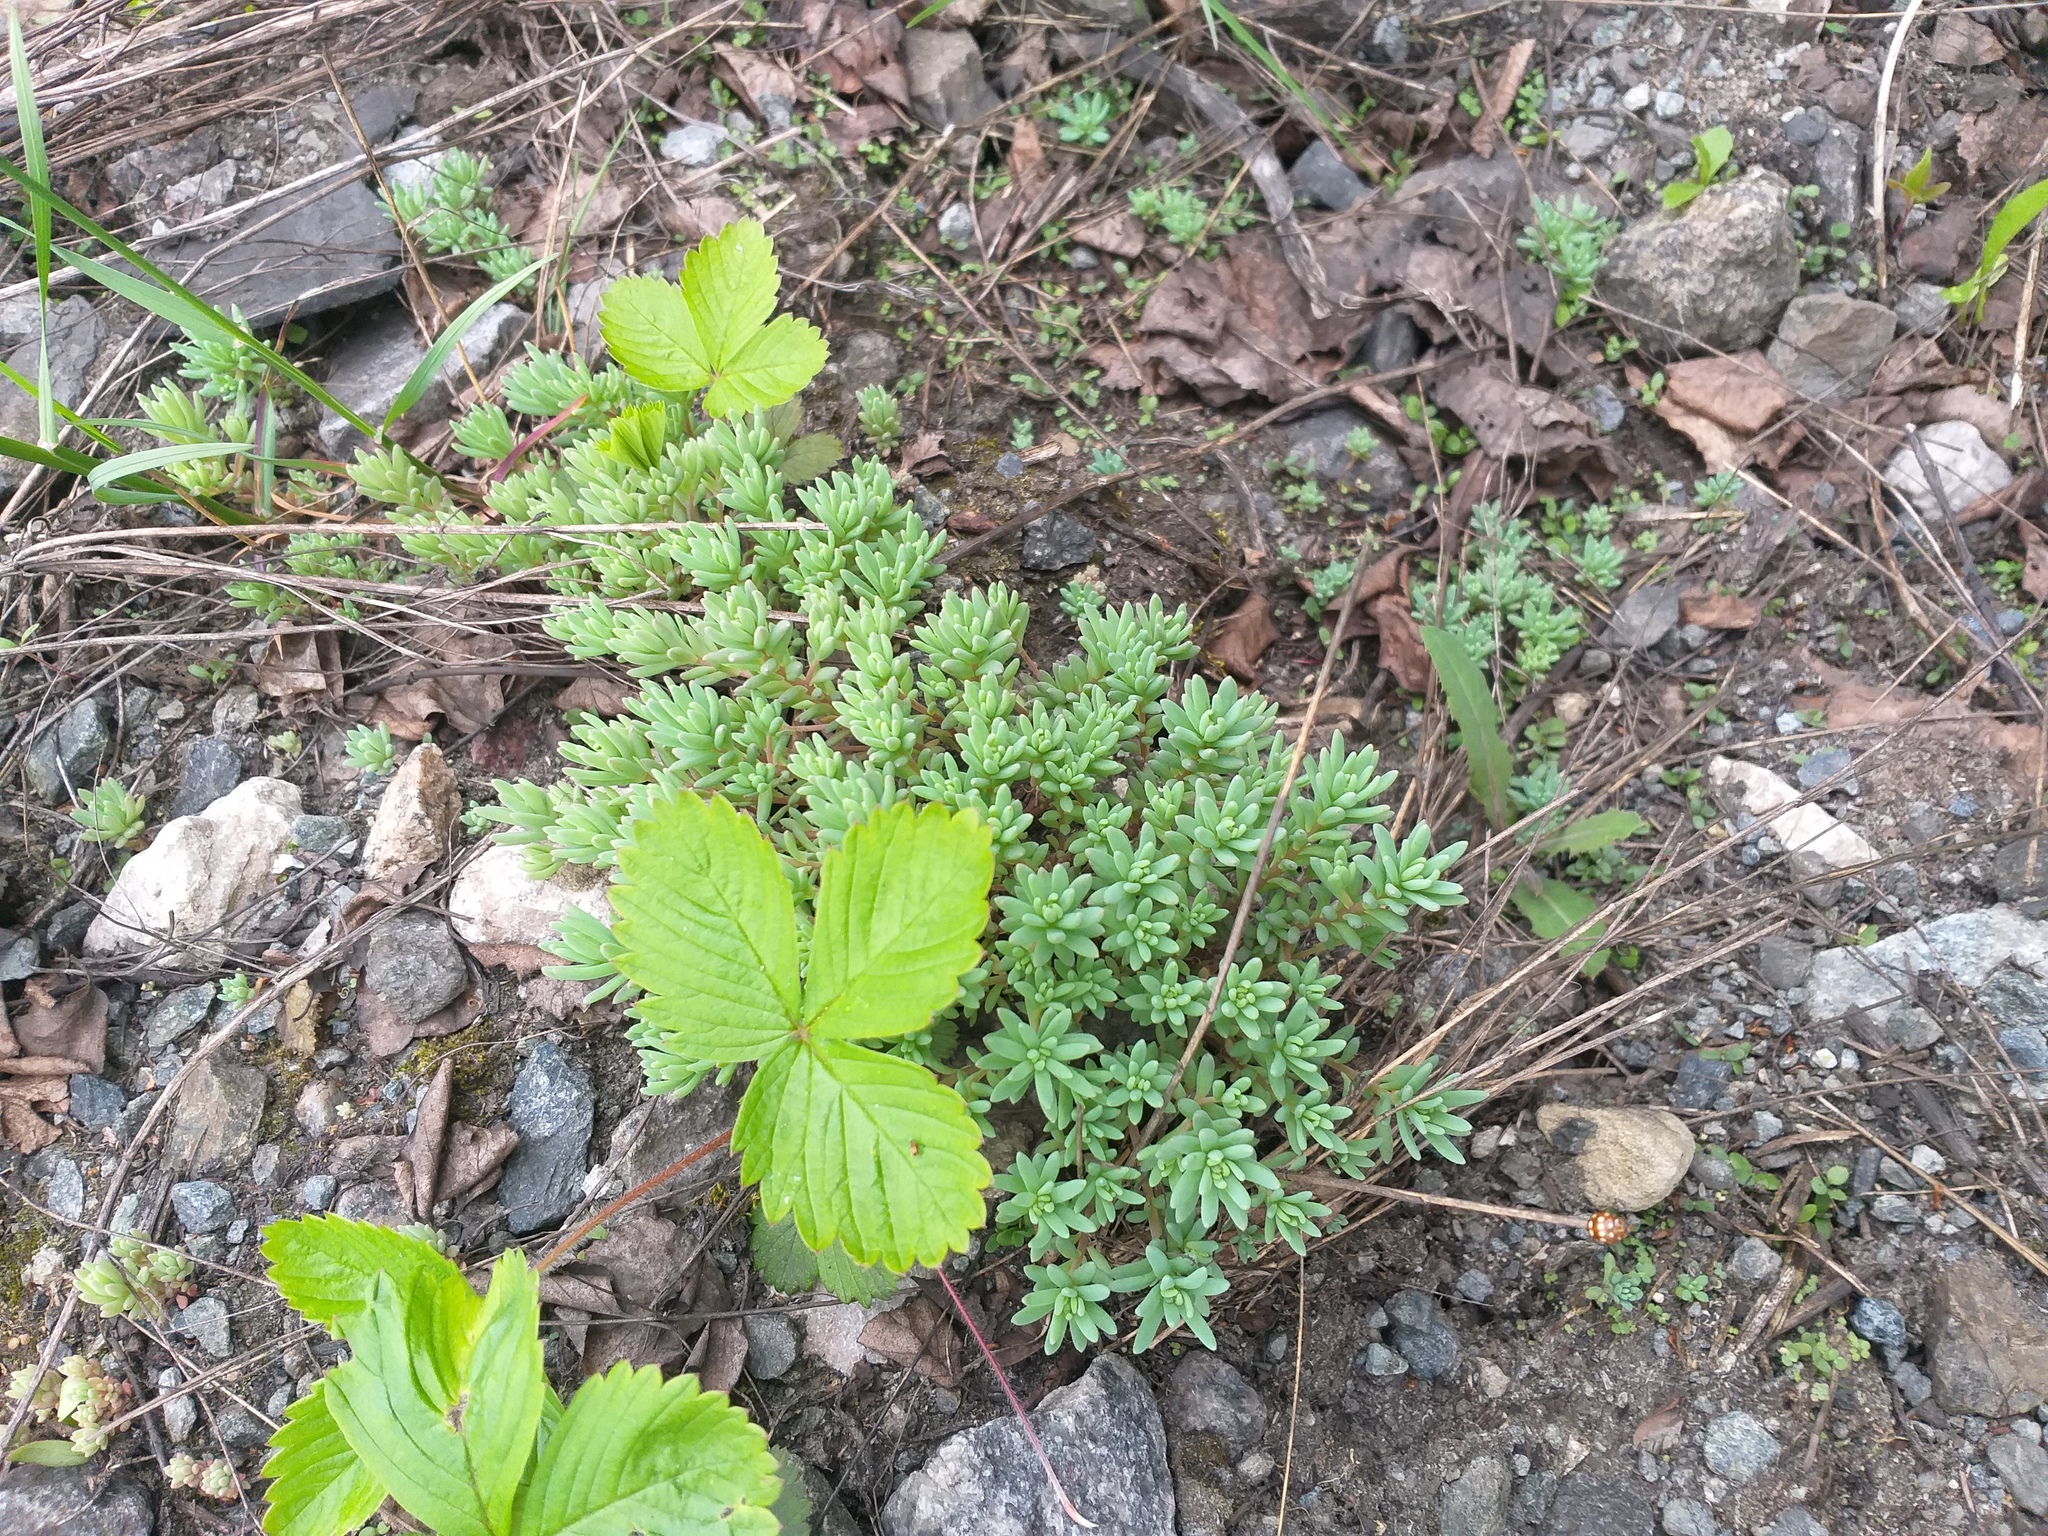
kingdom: Plantae
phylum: Tracheophyta
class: Magnoliopsida
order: Saxifragales
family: Crassulaceae
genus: Sedum
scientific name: Sedum hispanicum
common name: Spanish stonecrop
